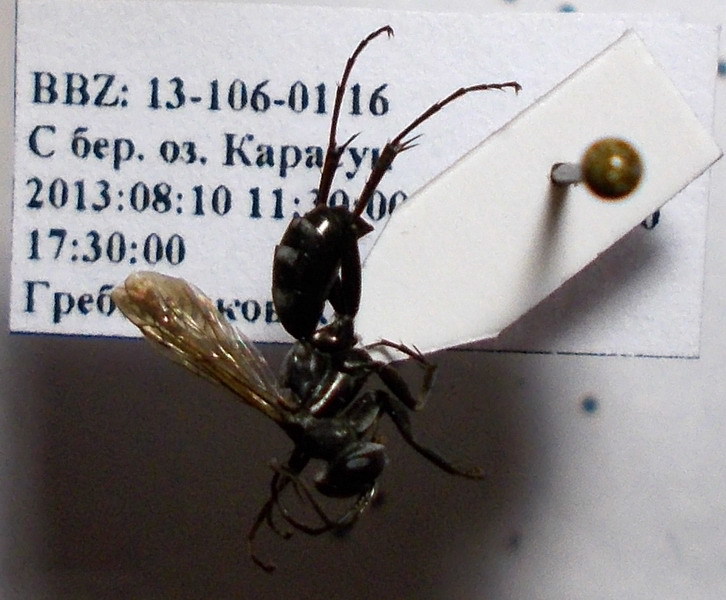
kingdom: Animalia
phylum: Arthropoda
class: Insecta
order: Hymenoptera
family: Pompilidae
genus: Aporinellus
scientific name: Aporinellus sexmaculatus
